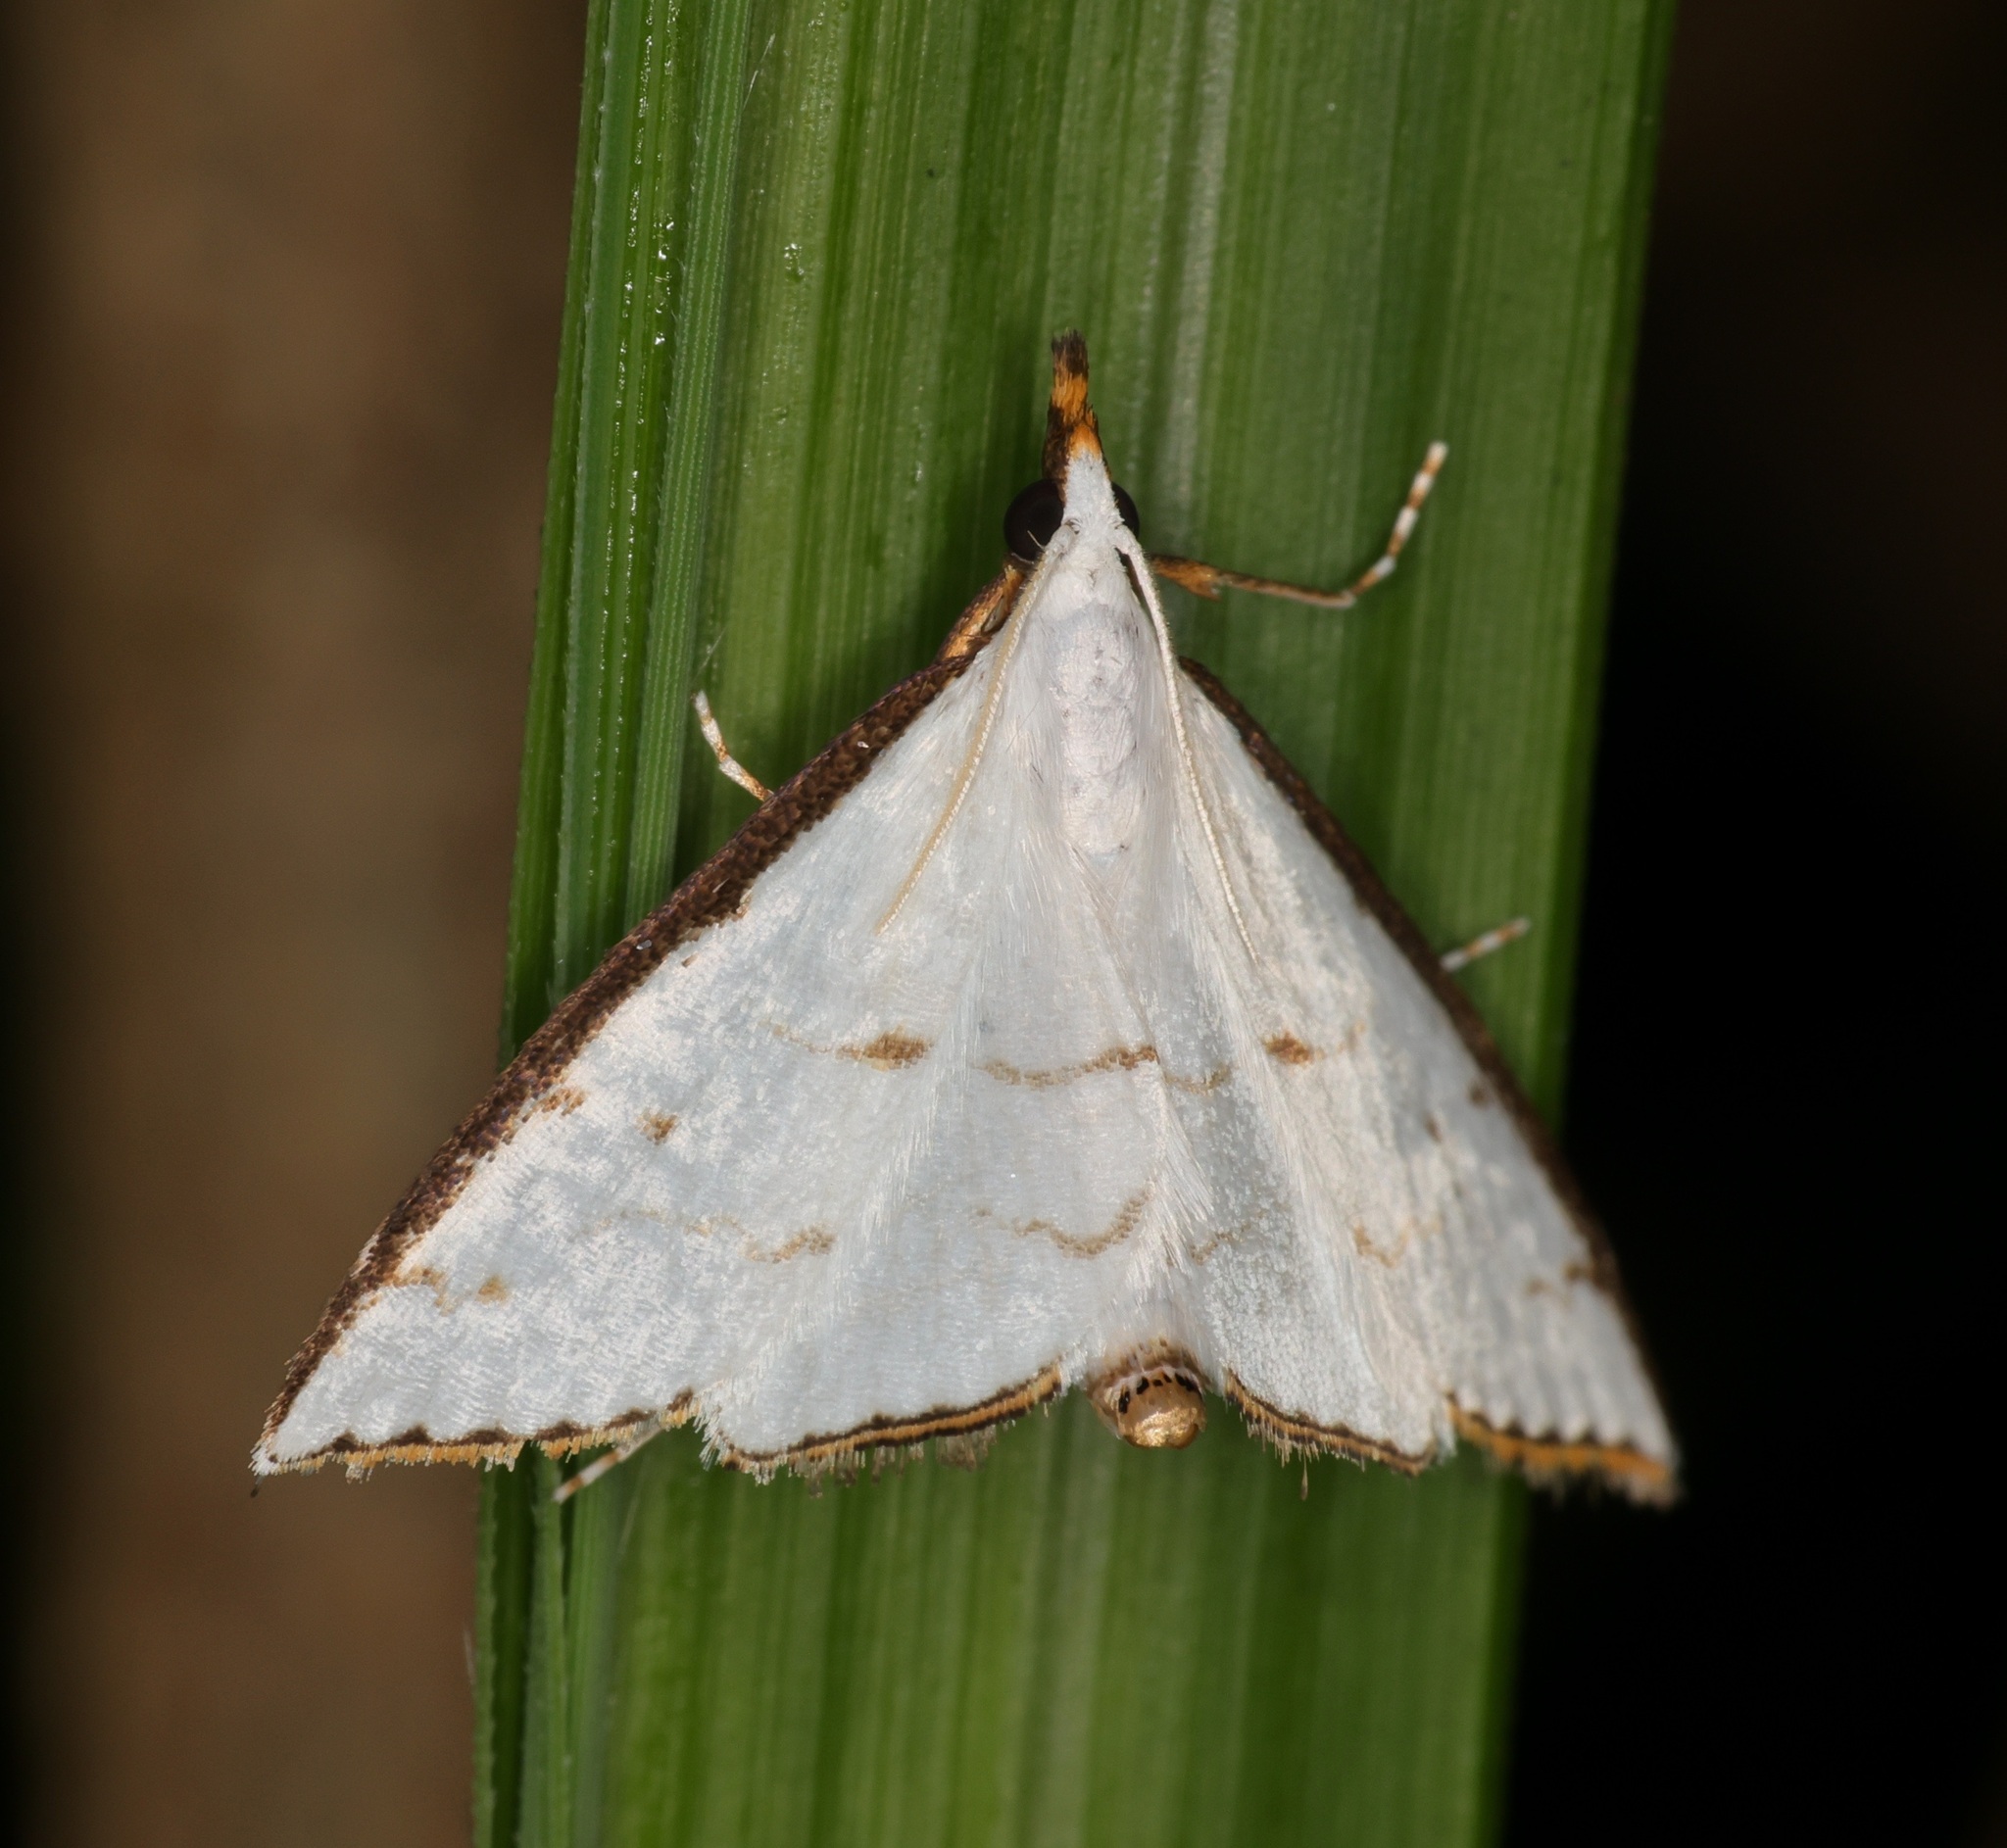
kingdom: Animalia
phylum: Arthropoda
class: Insecta
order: Lepidoptera
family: Crambidae
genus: Ramila
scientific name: Ramila acciusalis
